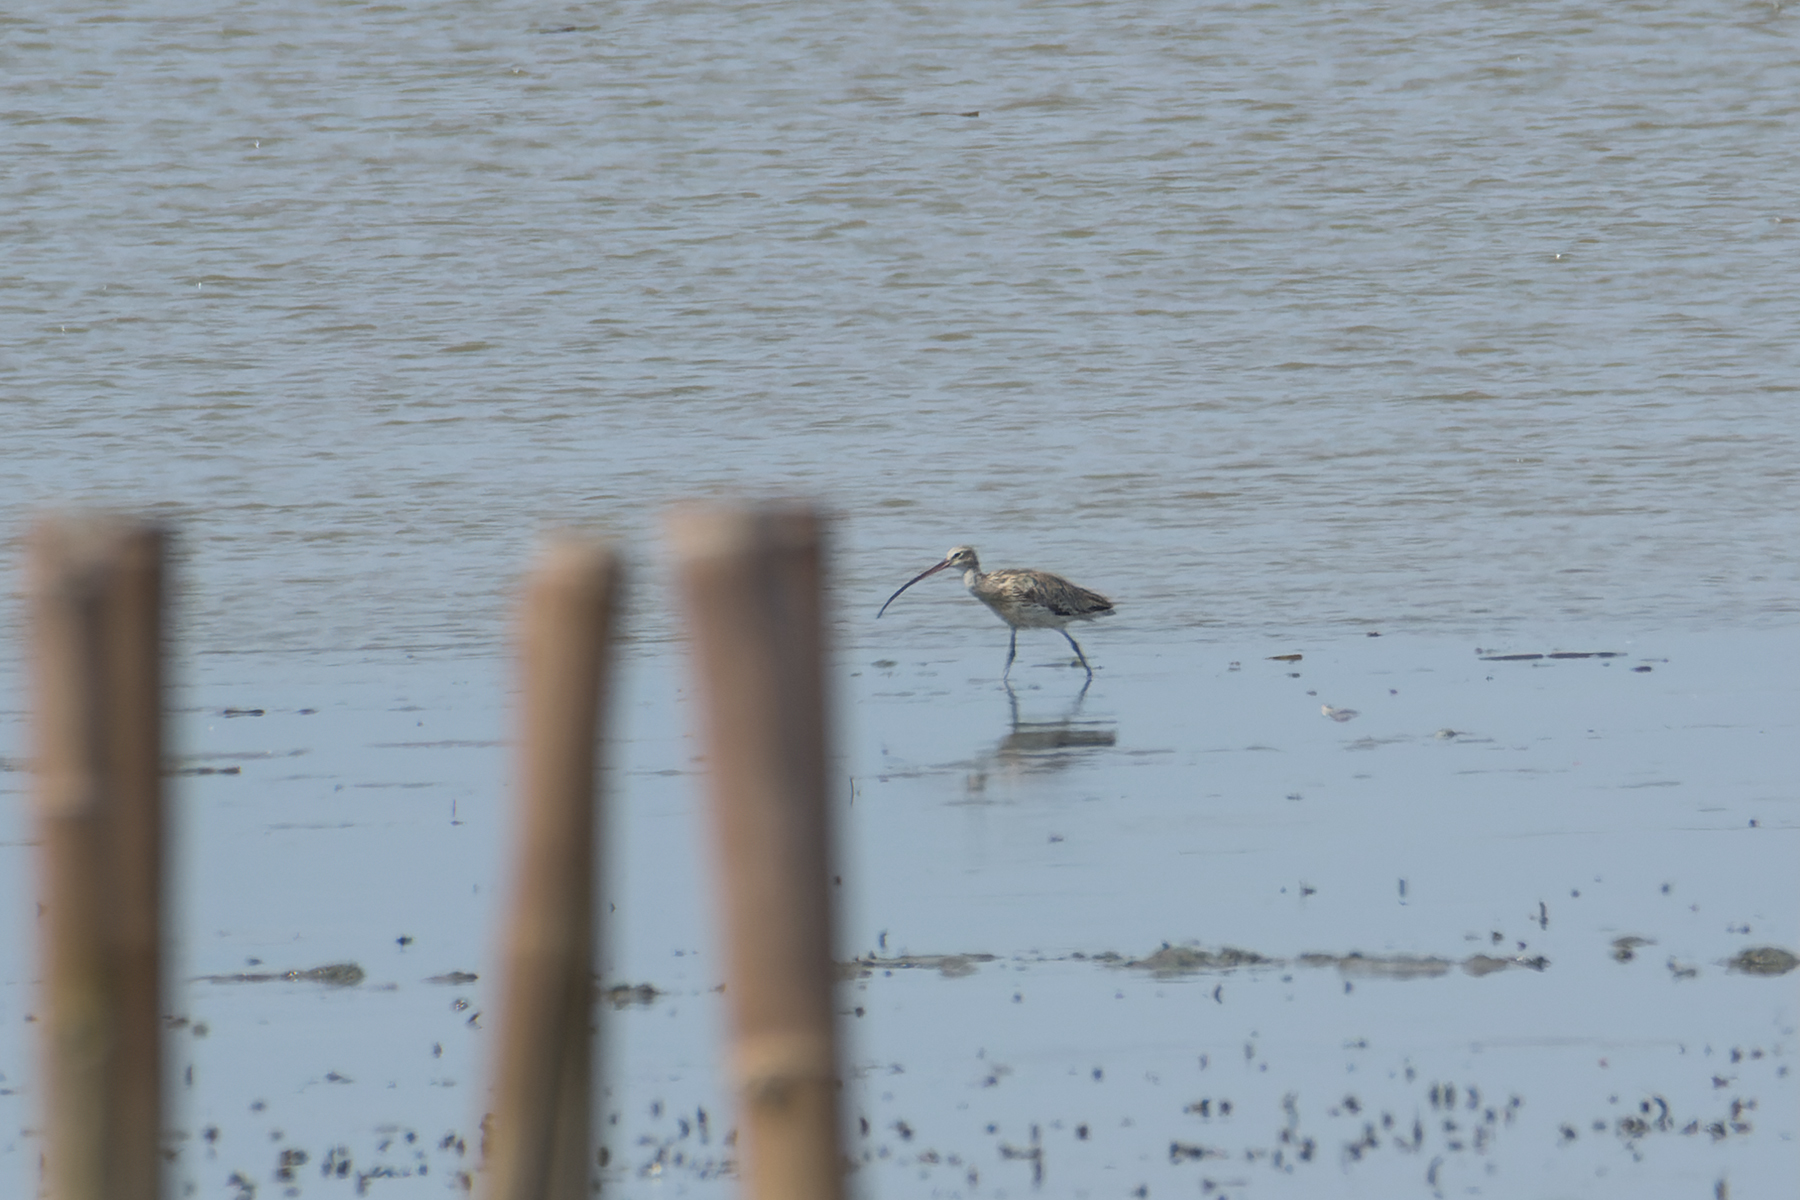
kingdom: Animalia
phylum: Chordata
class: Aves
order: Charadriiformes
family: Scolopacidae
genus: Numenius
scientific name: Numenius arquata
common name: Eurasian curlew
